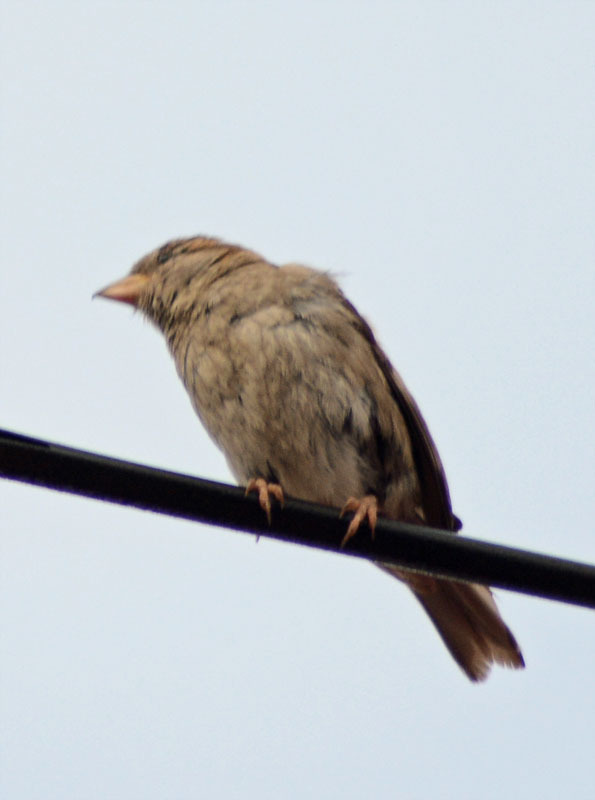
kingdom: Animalia
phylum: Chordata
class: Aves
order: Passeriformes
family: Passeridae
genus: Passer
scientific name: Passer domesticus
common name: House sparrow
